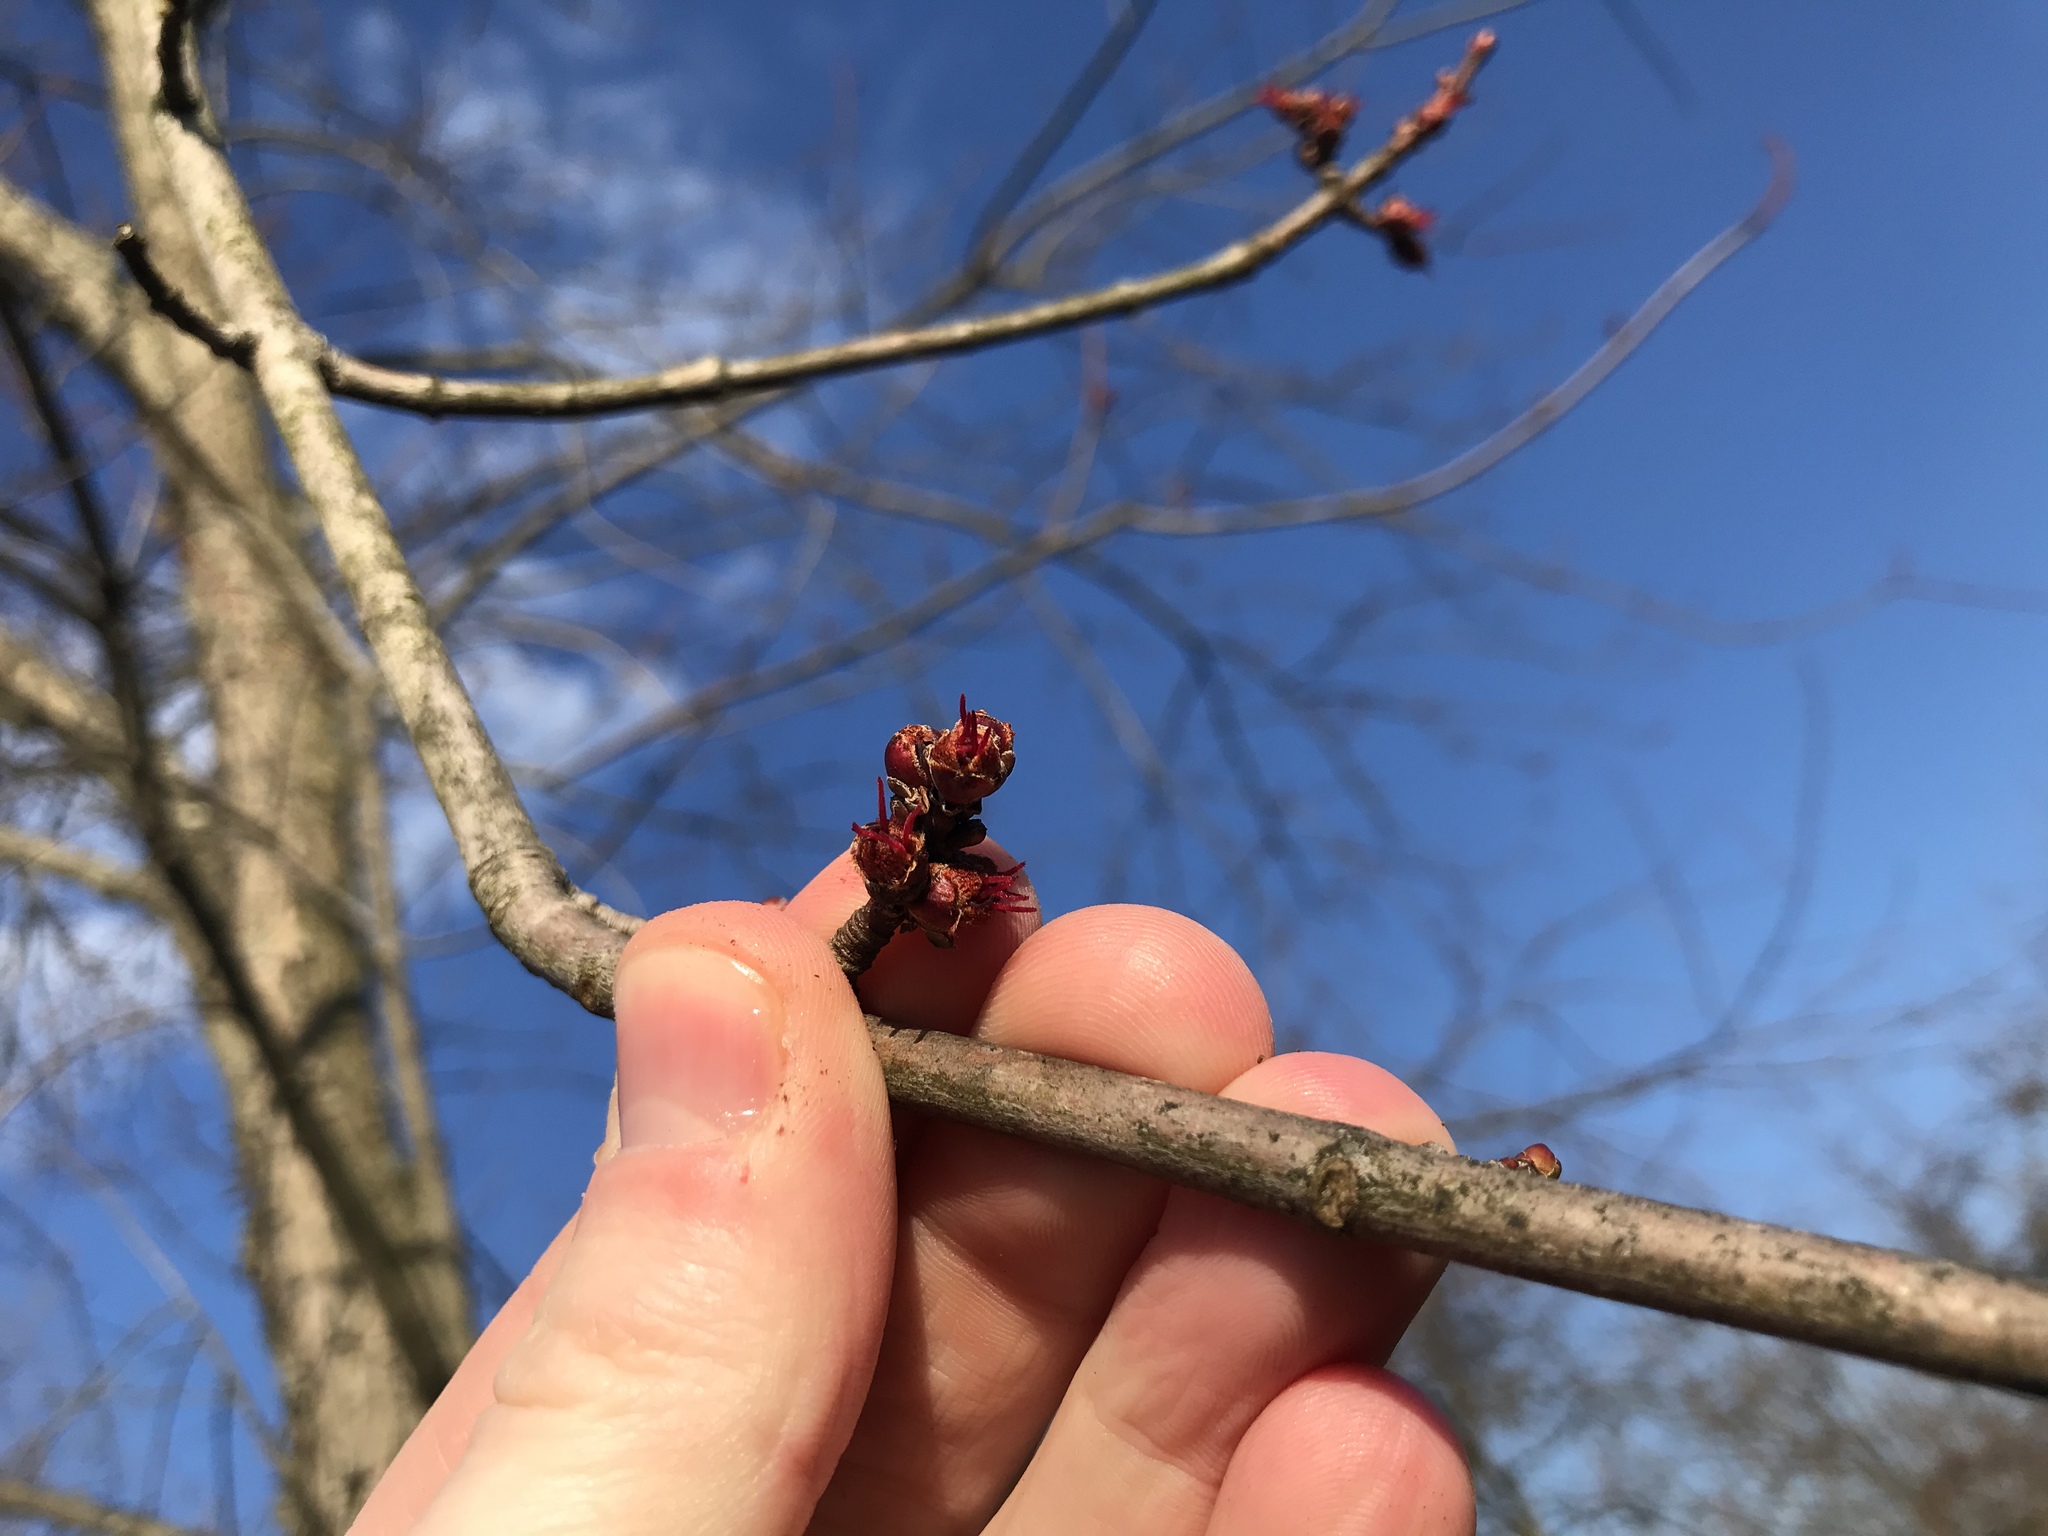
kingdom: Plantae
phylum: Tracheophyta
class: Magnoliopsida
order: Sapindales
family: Sapindaceae
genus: Acer
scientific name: Acer rubrum
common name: Red maple
